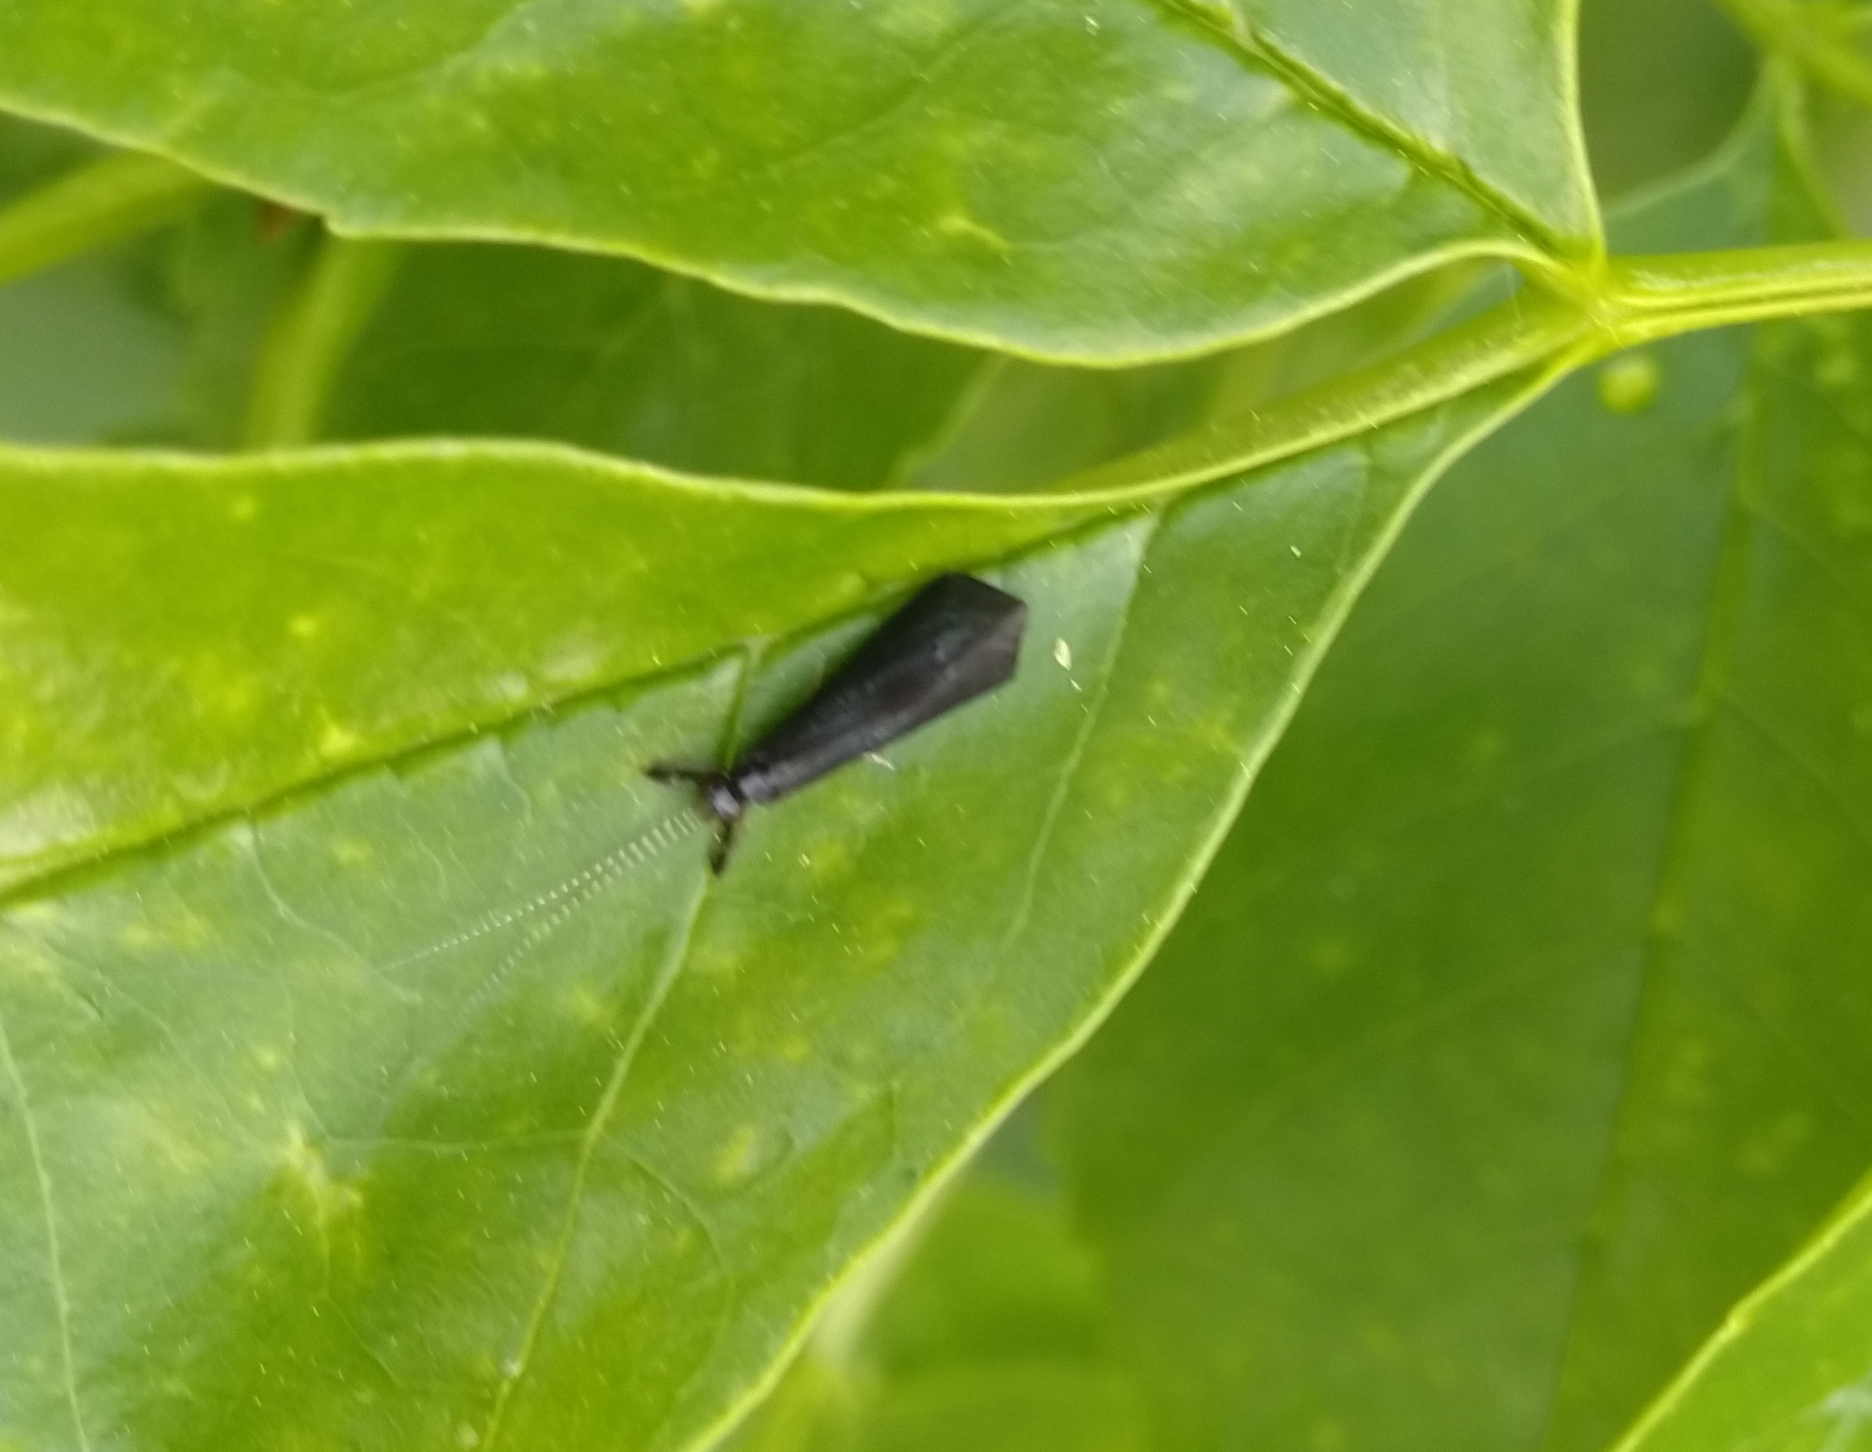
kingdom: Animalia
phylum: Arthropoda
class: Insecta
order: Trichoptera
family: Leptoceridae
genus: Mystacides
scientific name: Mystacides sepulchralis
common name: Black dancer caddisfly
